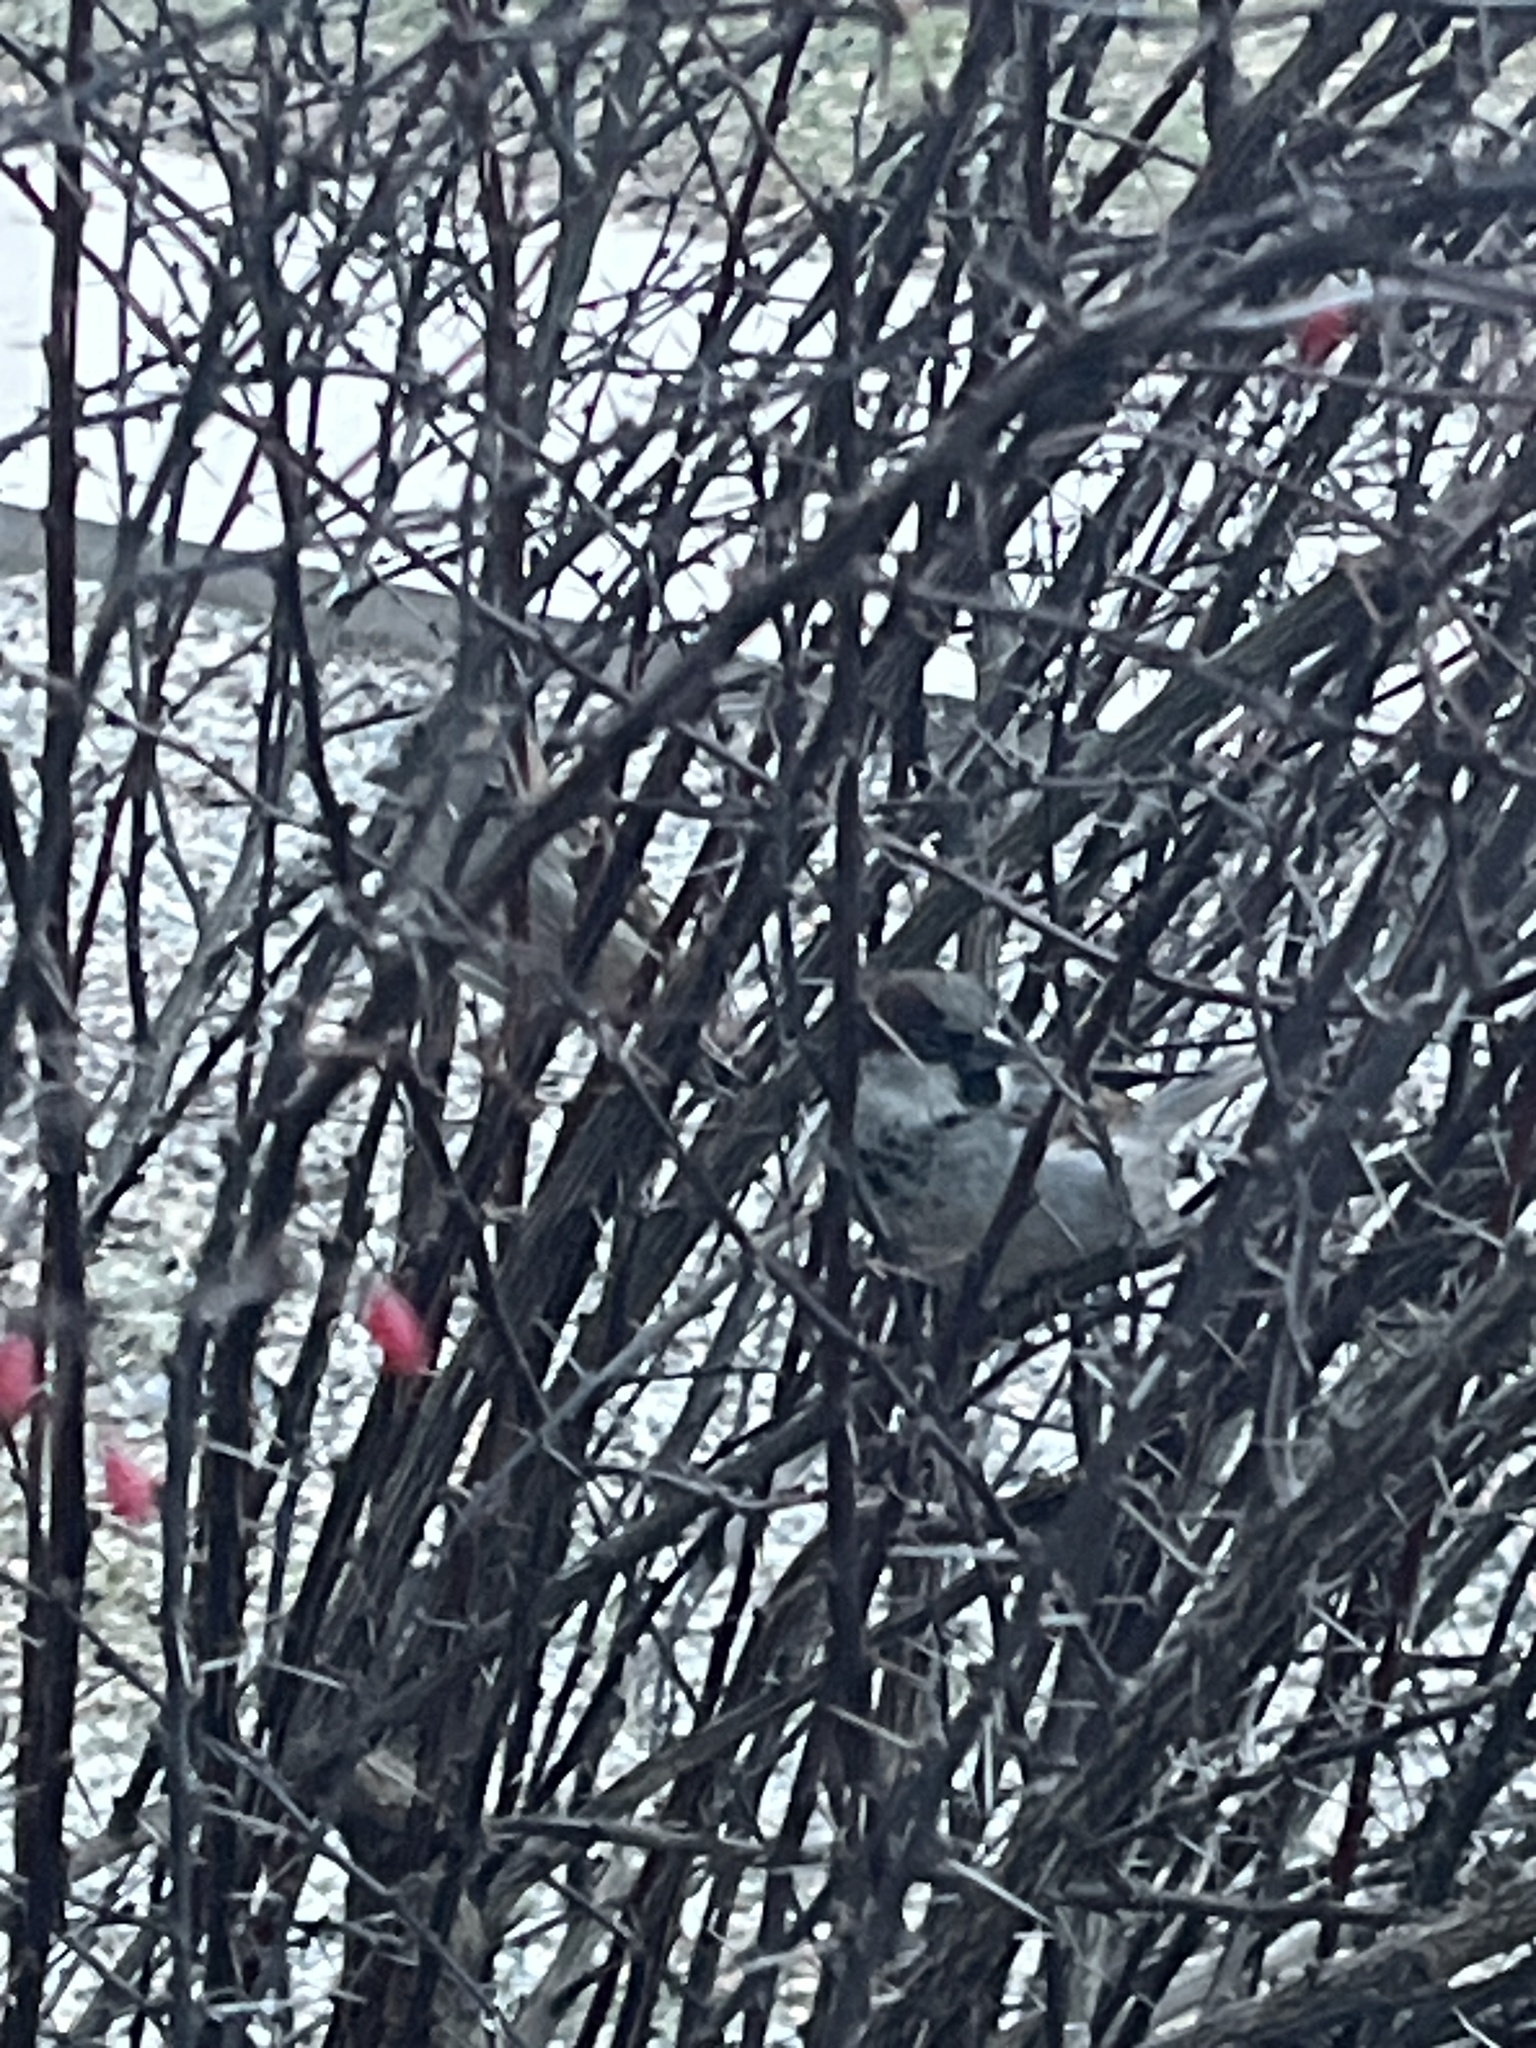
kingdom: Animalia
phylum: Chordata
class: Aves
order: Passeriformes
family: Passeridae
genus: Passer
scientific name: Passer domesticus
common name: House sparrow
